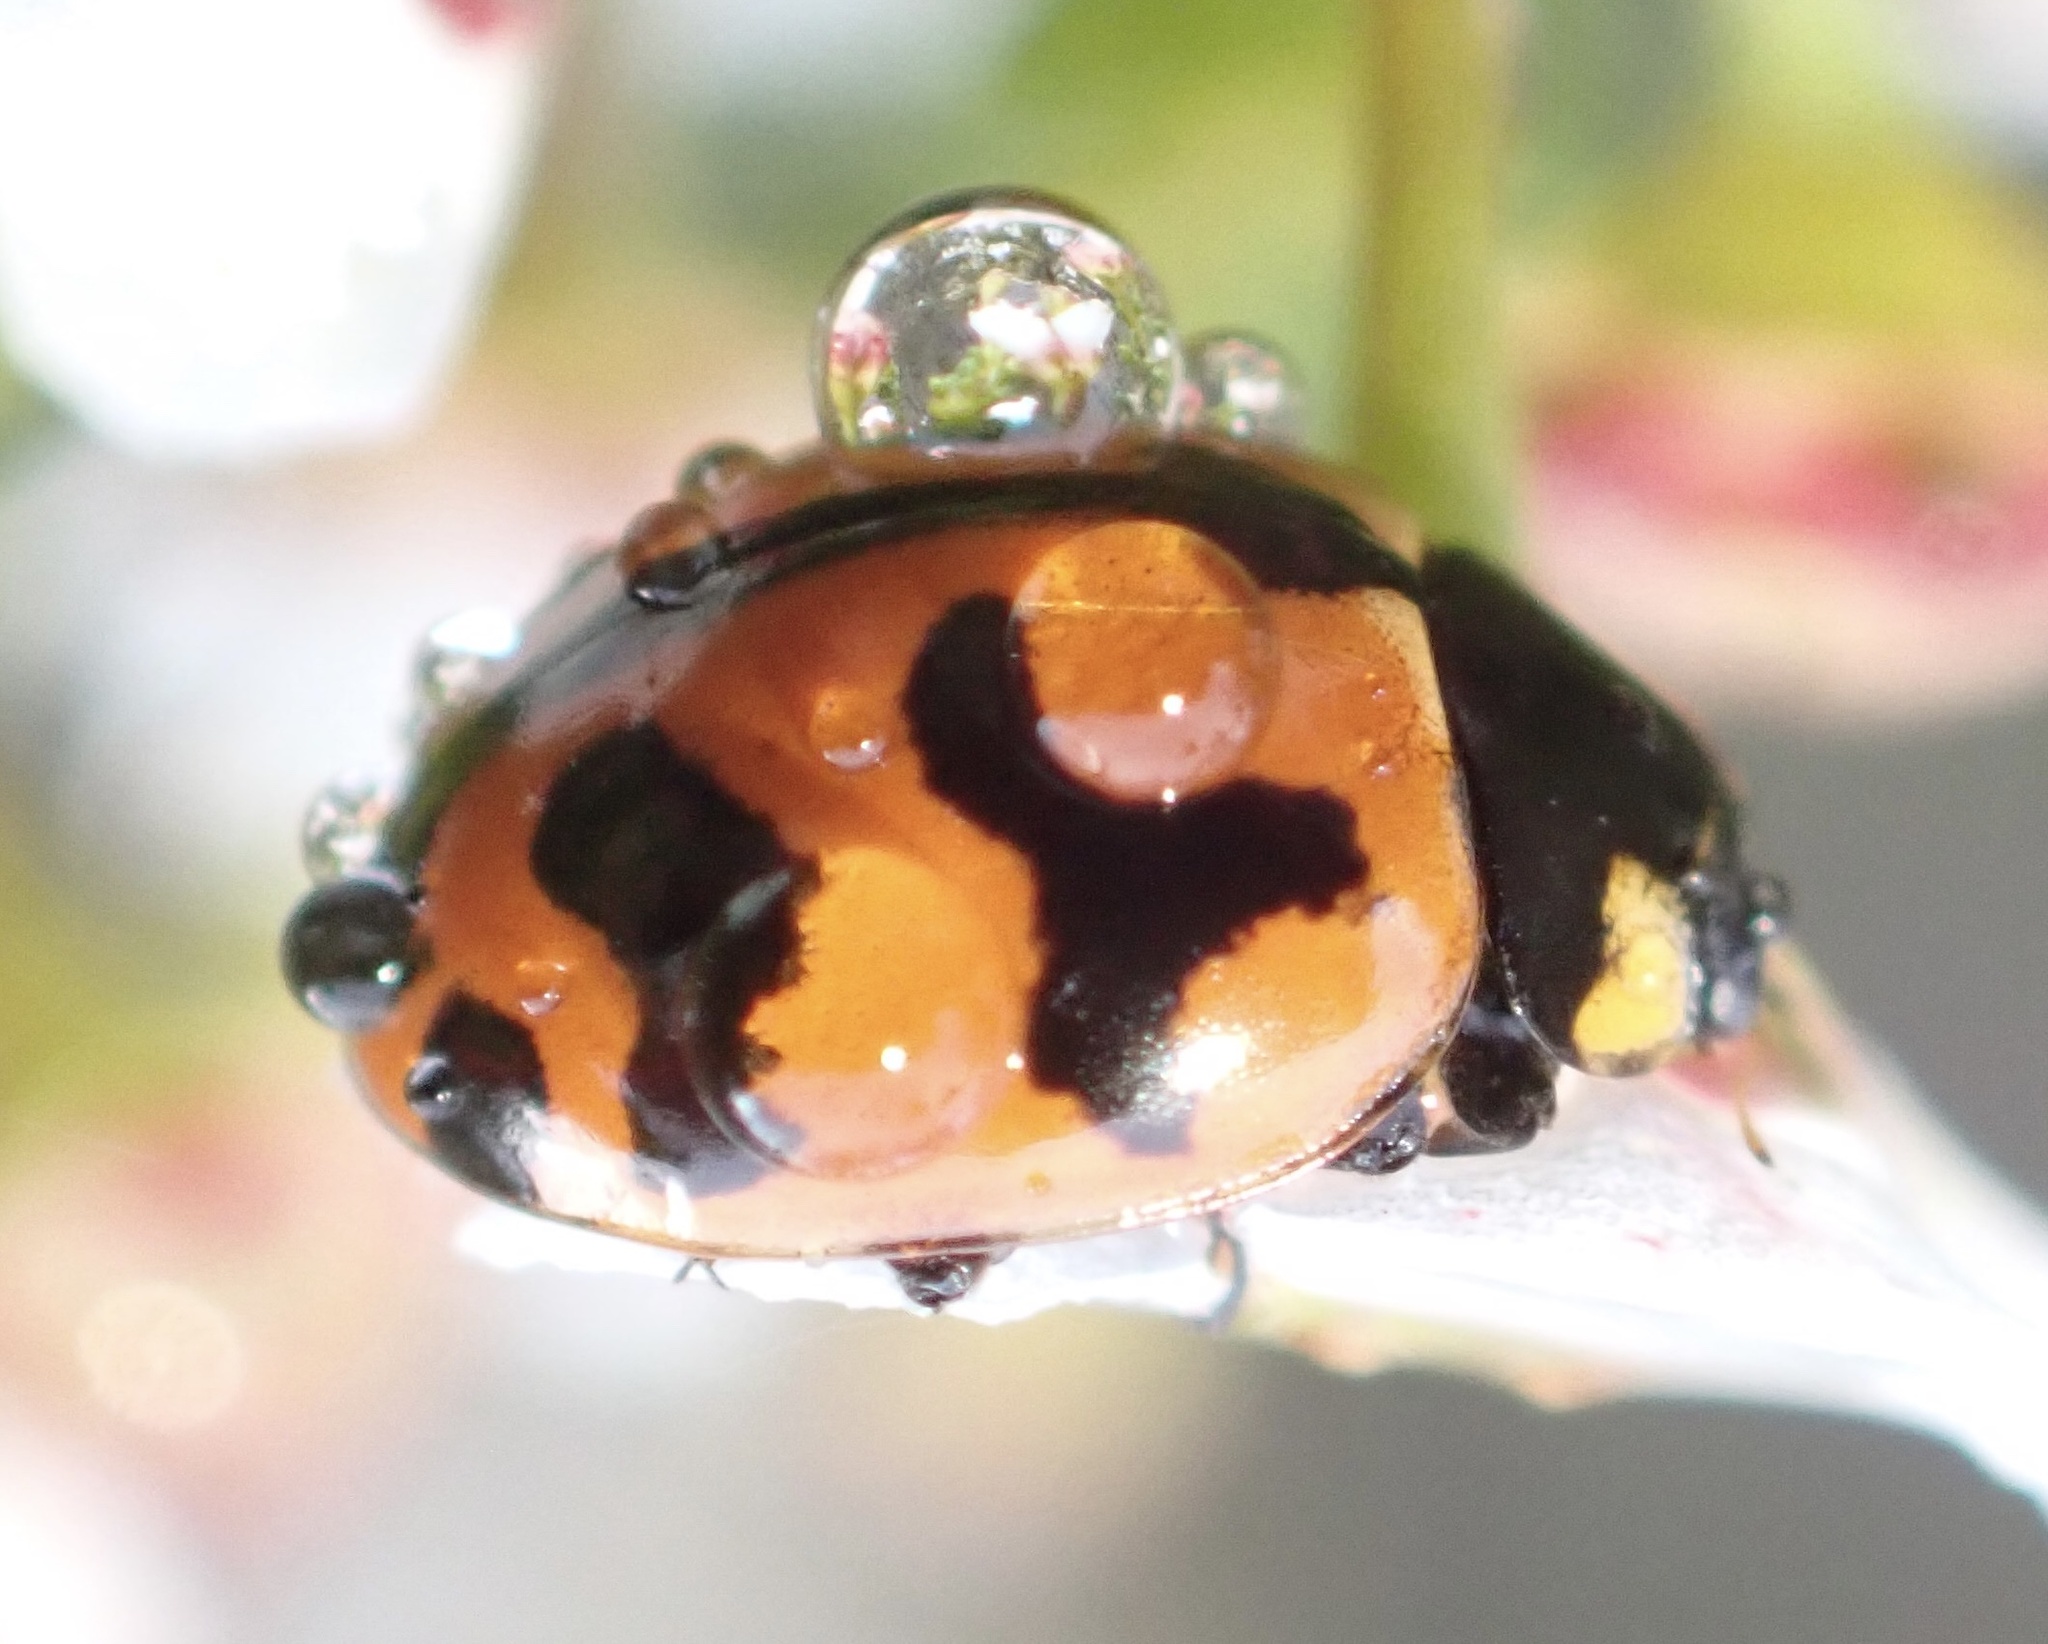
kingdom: Animalia
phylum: Arthropoda
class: Insecta
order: Coleoptera
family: Coccinellidae
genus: Coccinella
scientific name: Coccinella transversalis
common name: Transverse lady beetle
